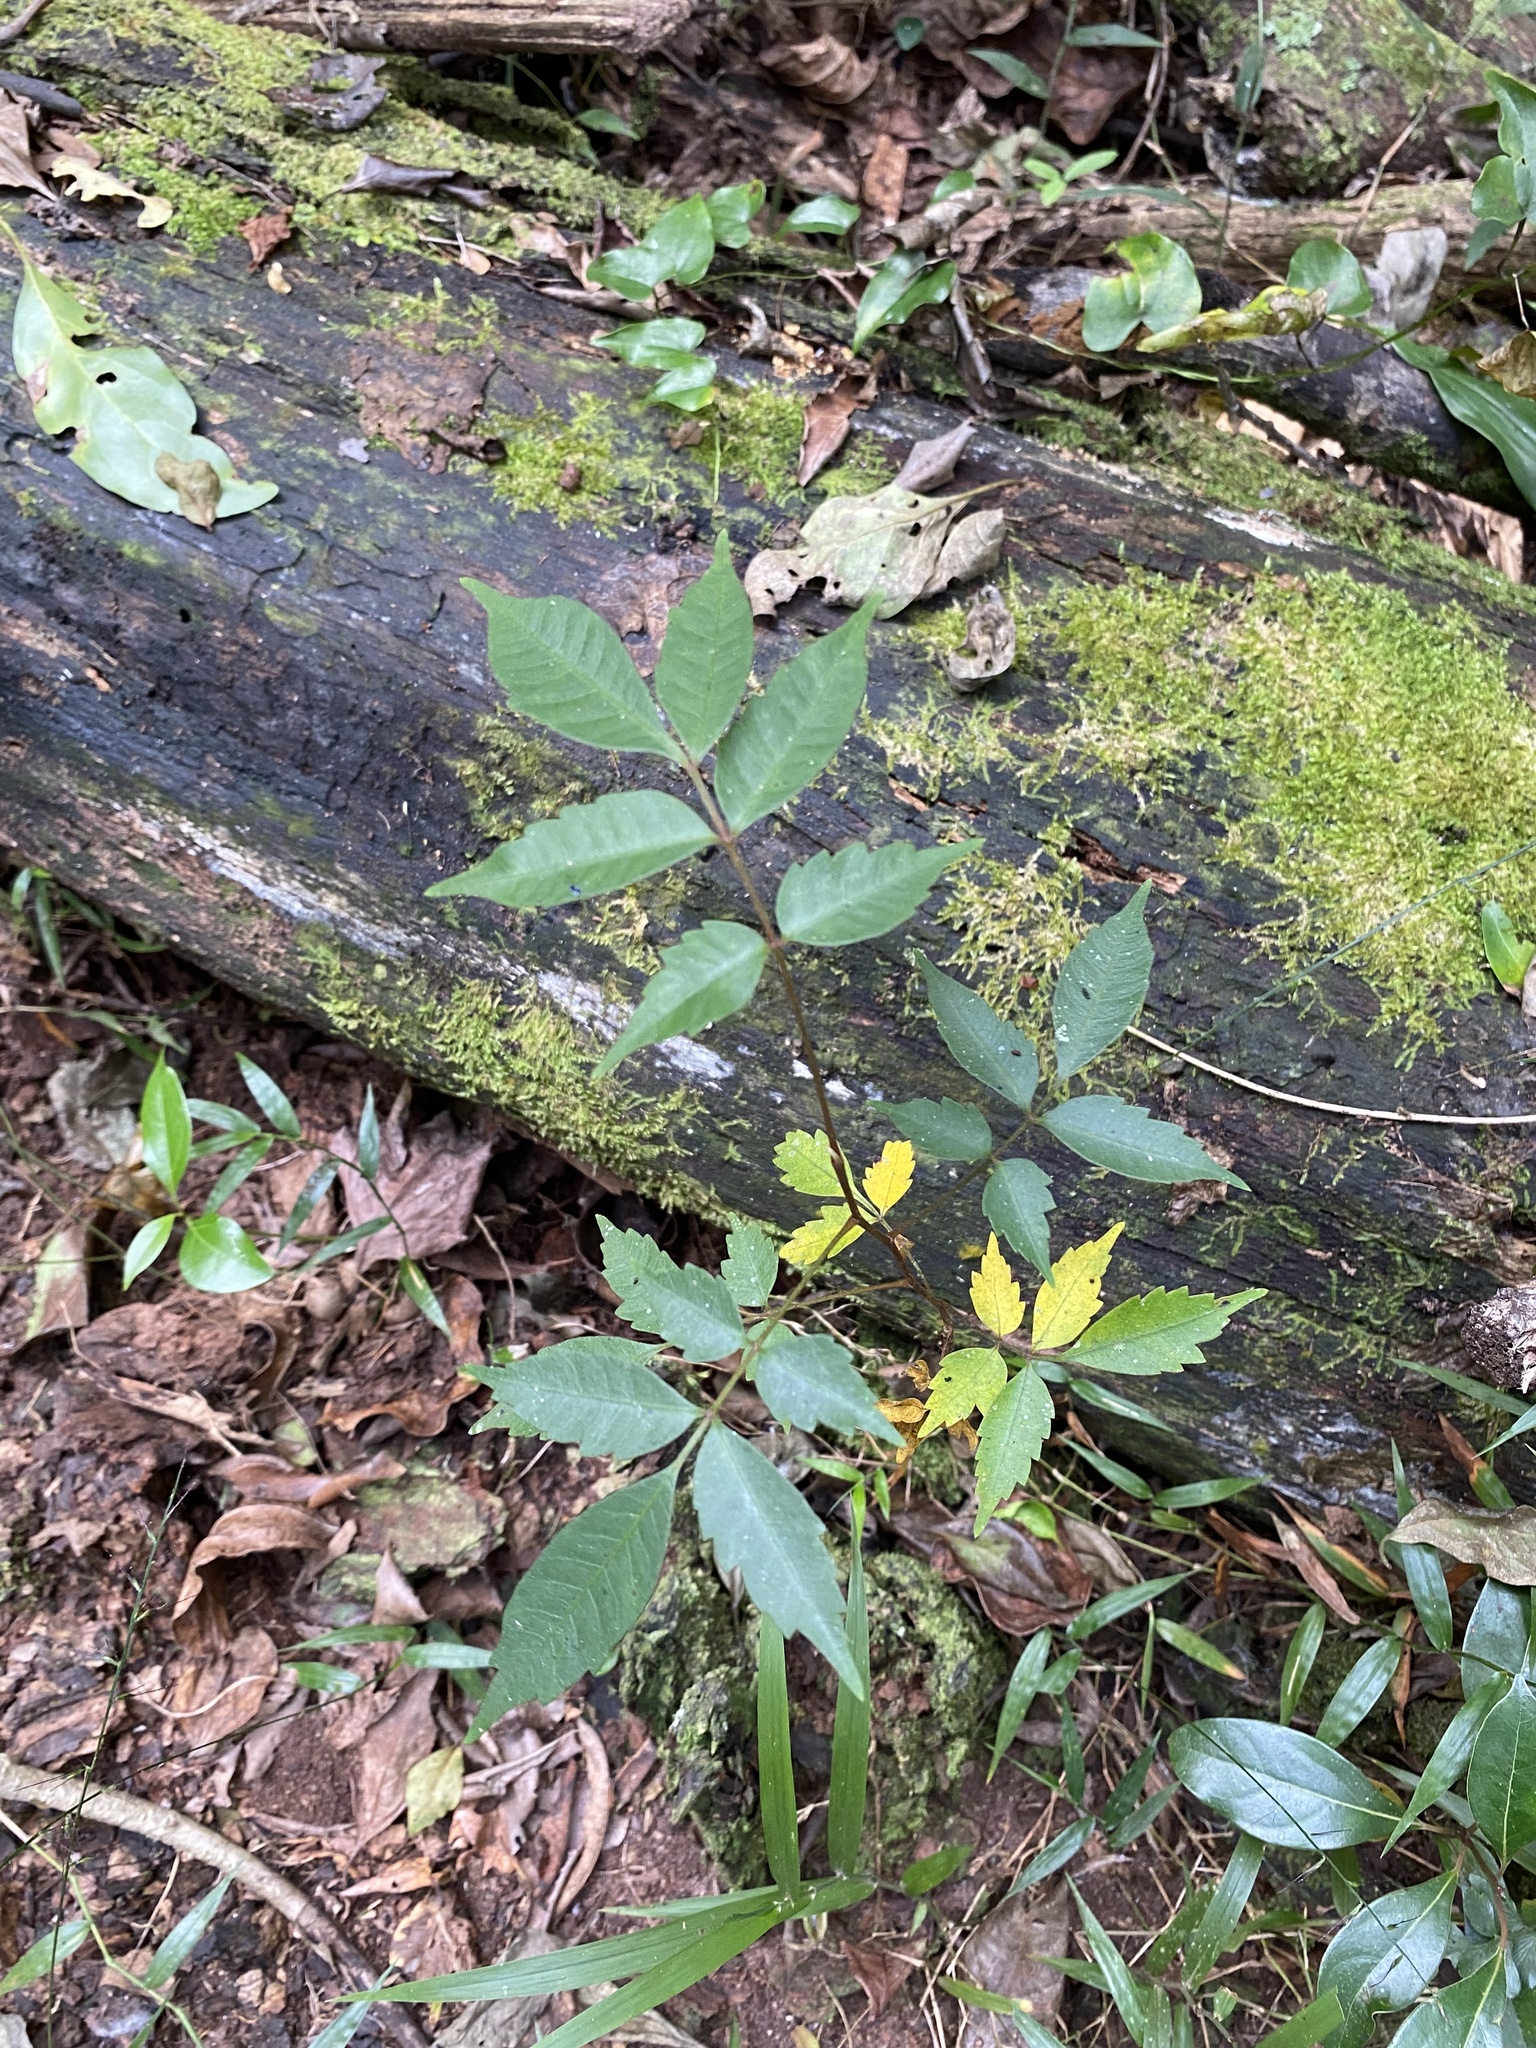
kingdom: Plantae
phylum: Tracheophyta
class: Magnoliopsida
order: Sapindales
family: Anacardiaceae
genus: Toxicodendron
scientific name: Toxicodendron succedaneum
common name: Wax tree
